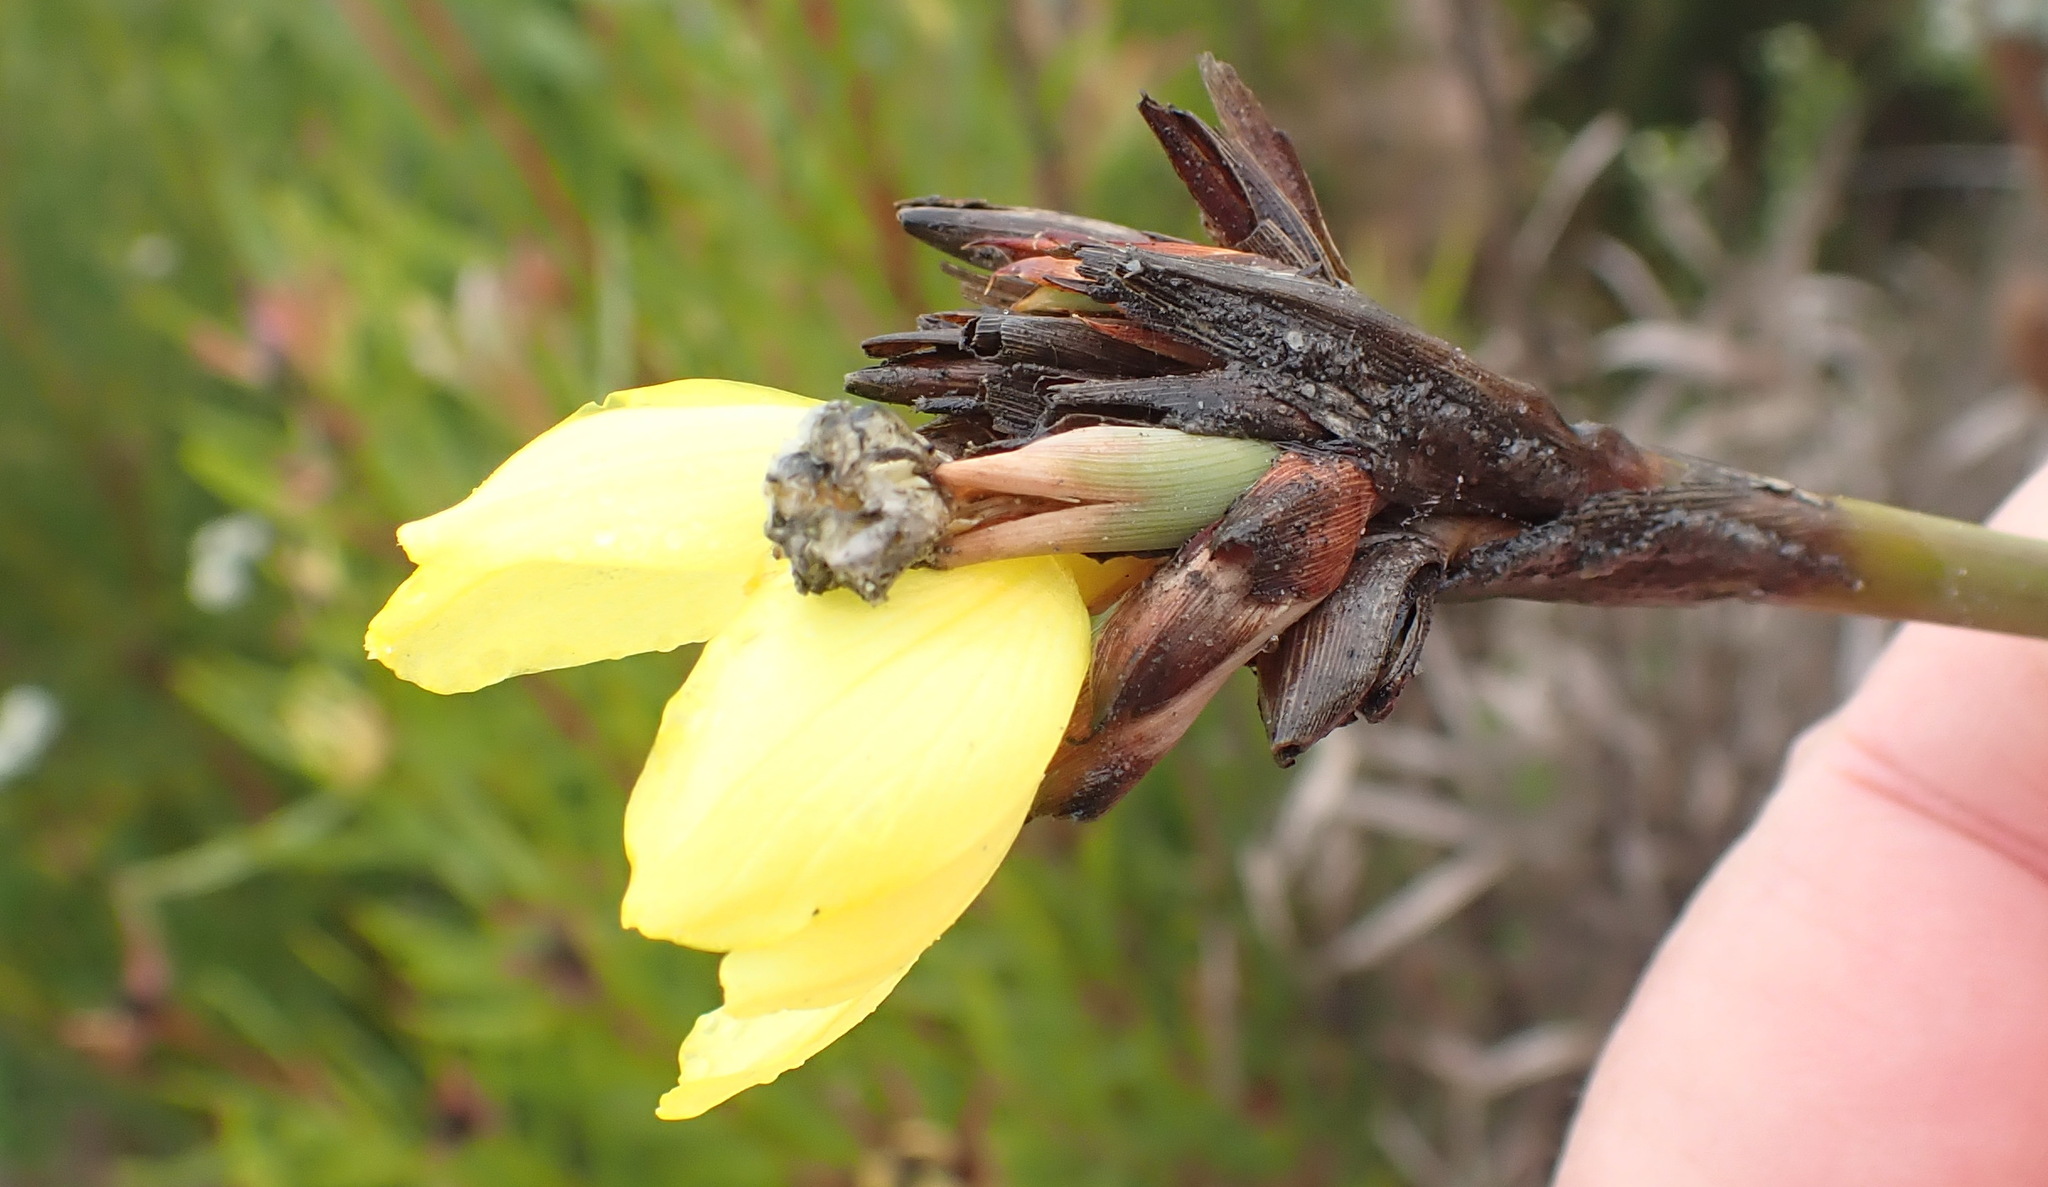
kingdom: Plantae
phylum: Tracheophyta
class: Liliopsida
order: Asparagales
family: Iridaceae
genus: Bobartia
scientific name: Bobartia macrospatha
